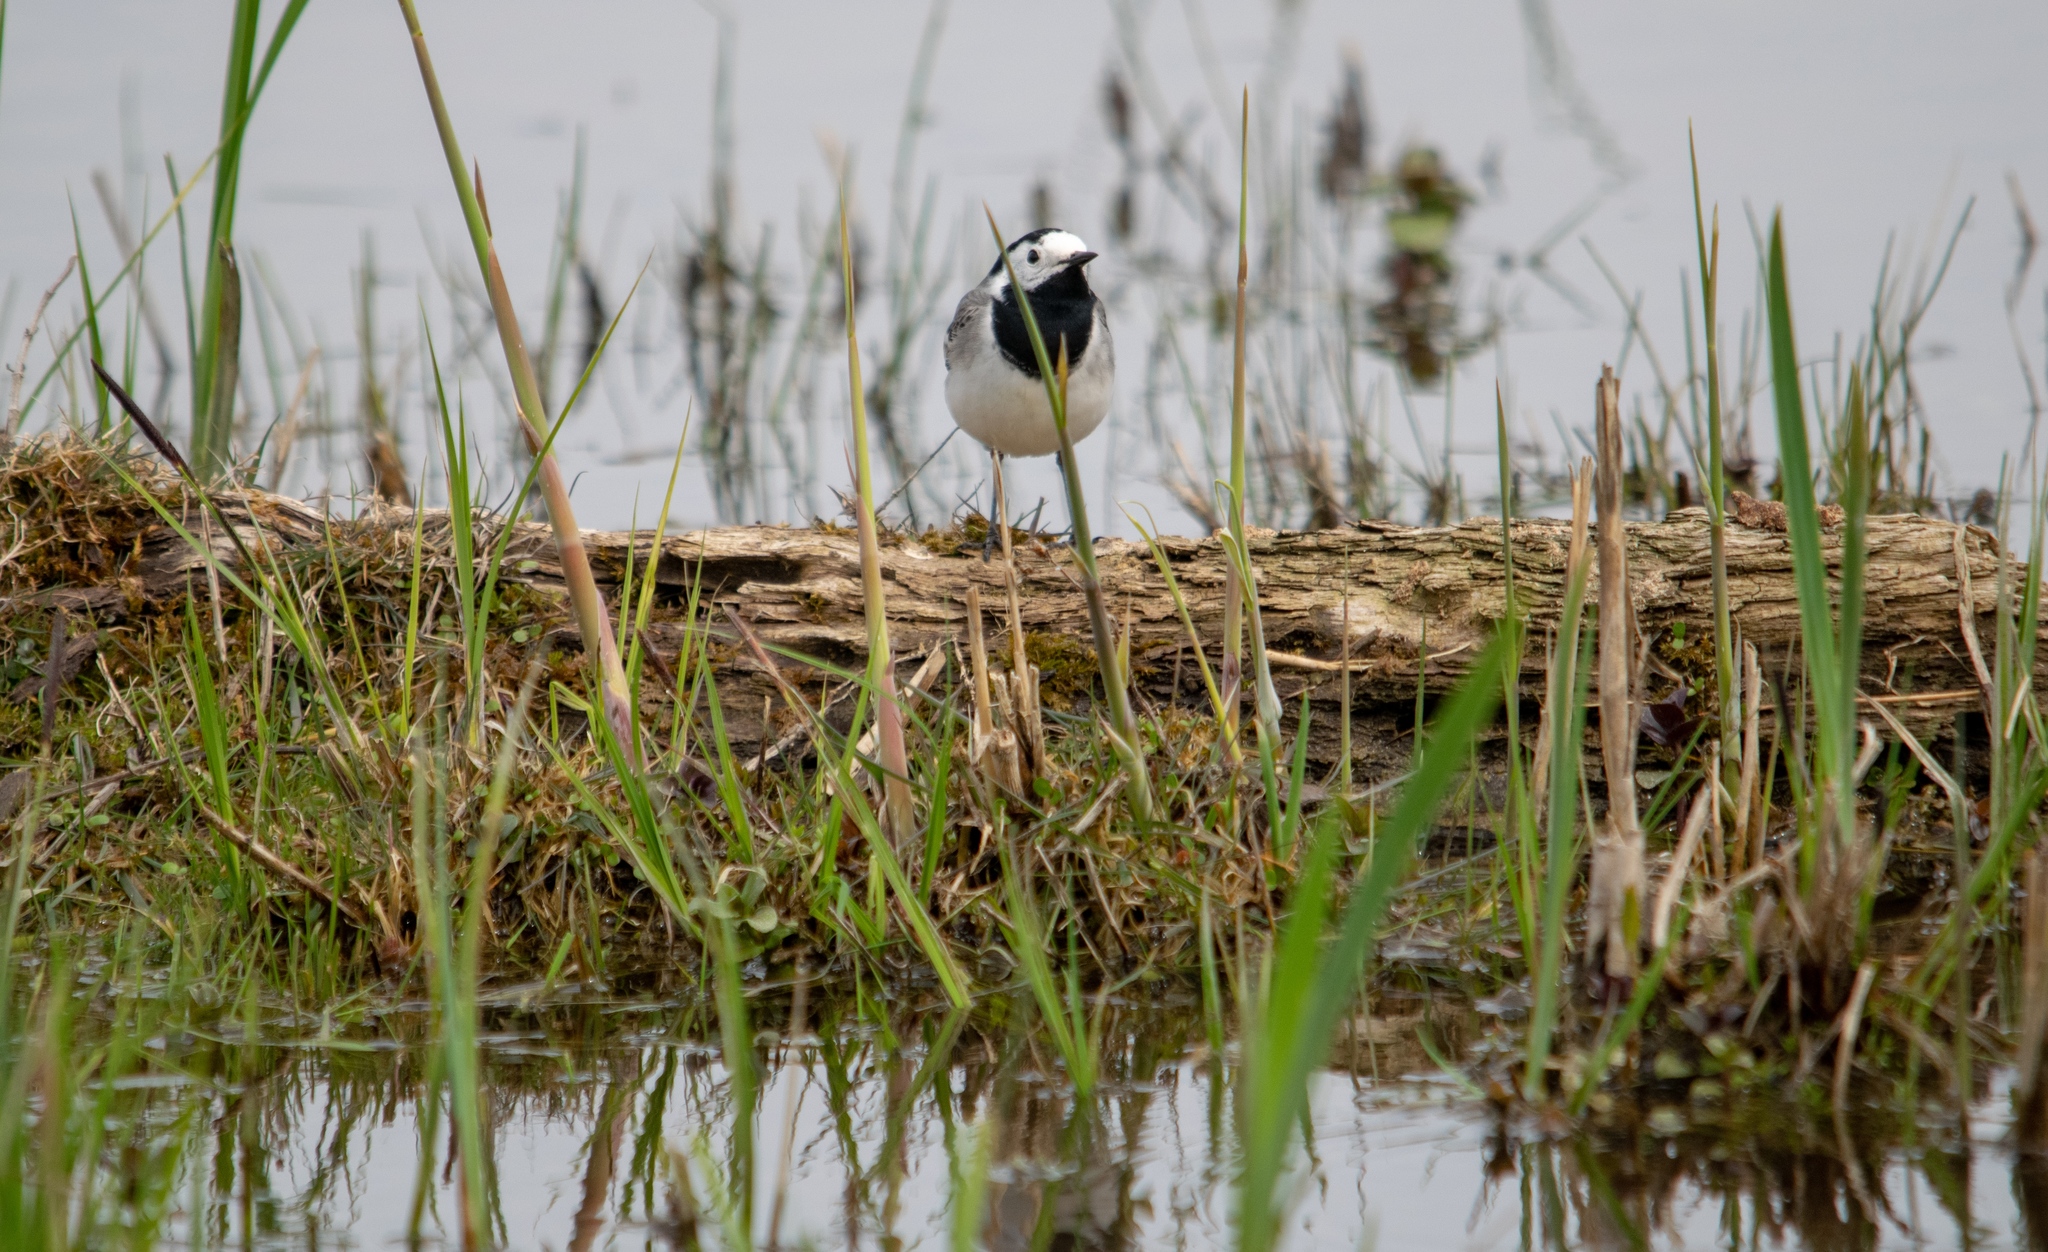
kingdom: Animalia
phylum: Chordata
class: Aves
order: Passeriformes
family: Motacillidae
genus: Motacilla
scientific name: Motacilla alba
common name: White wagtail
